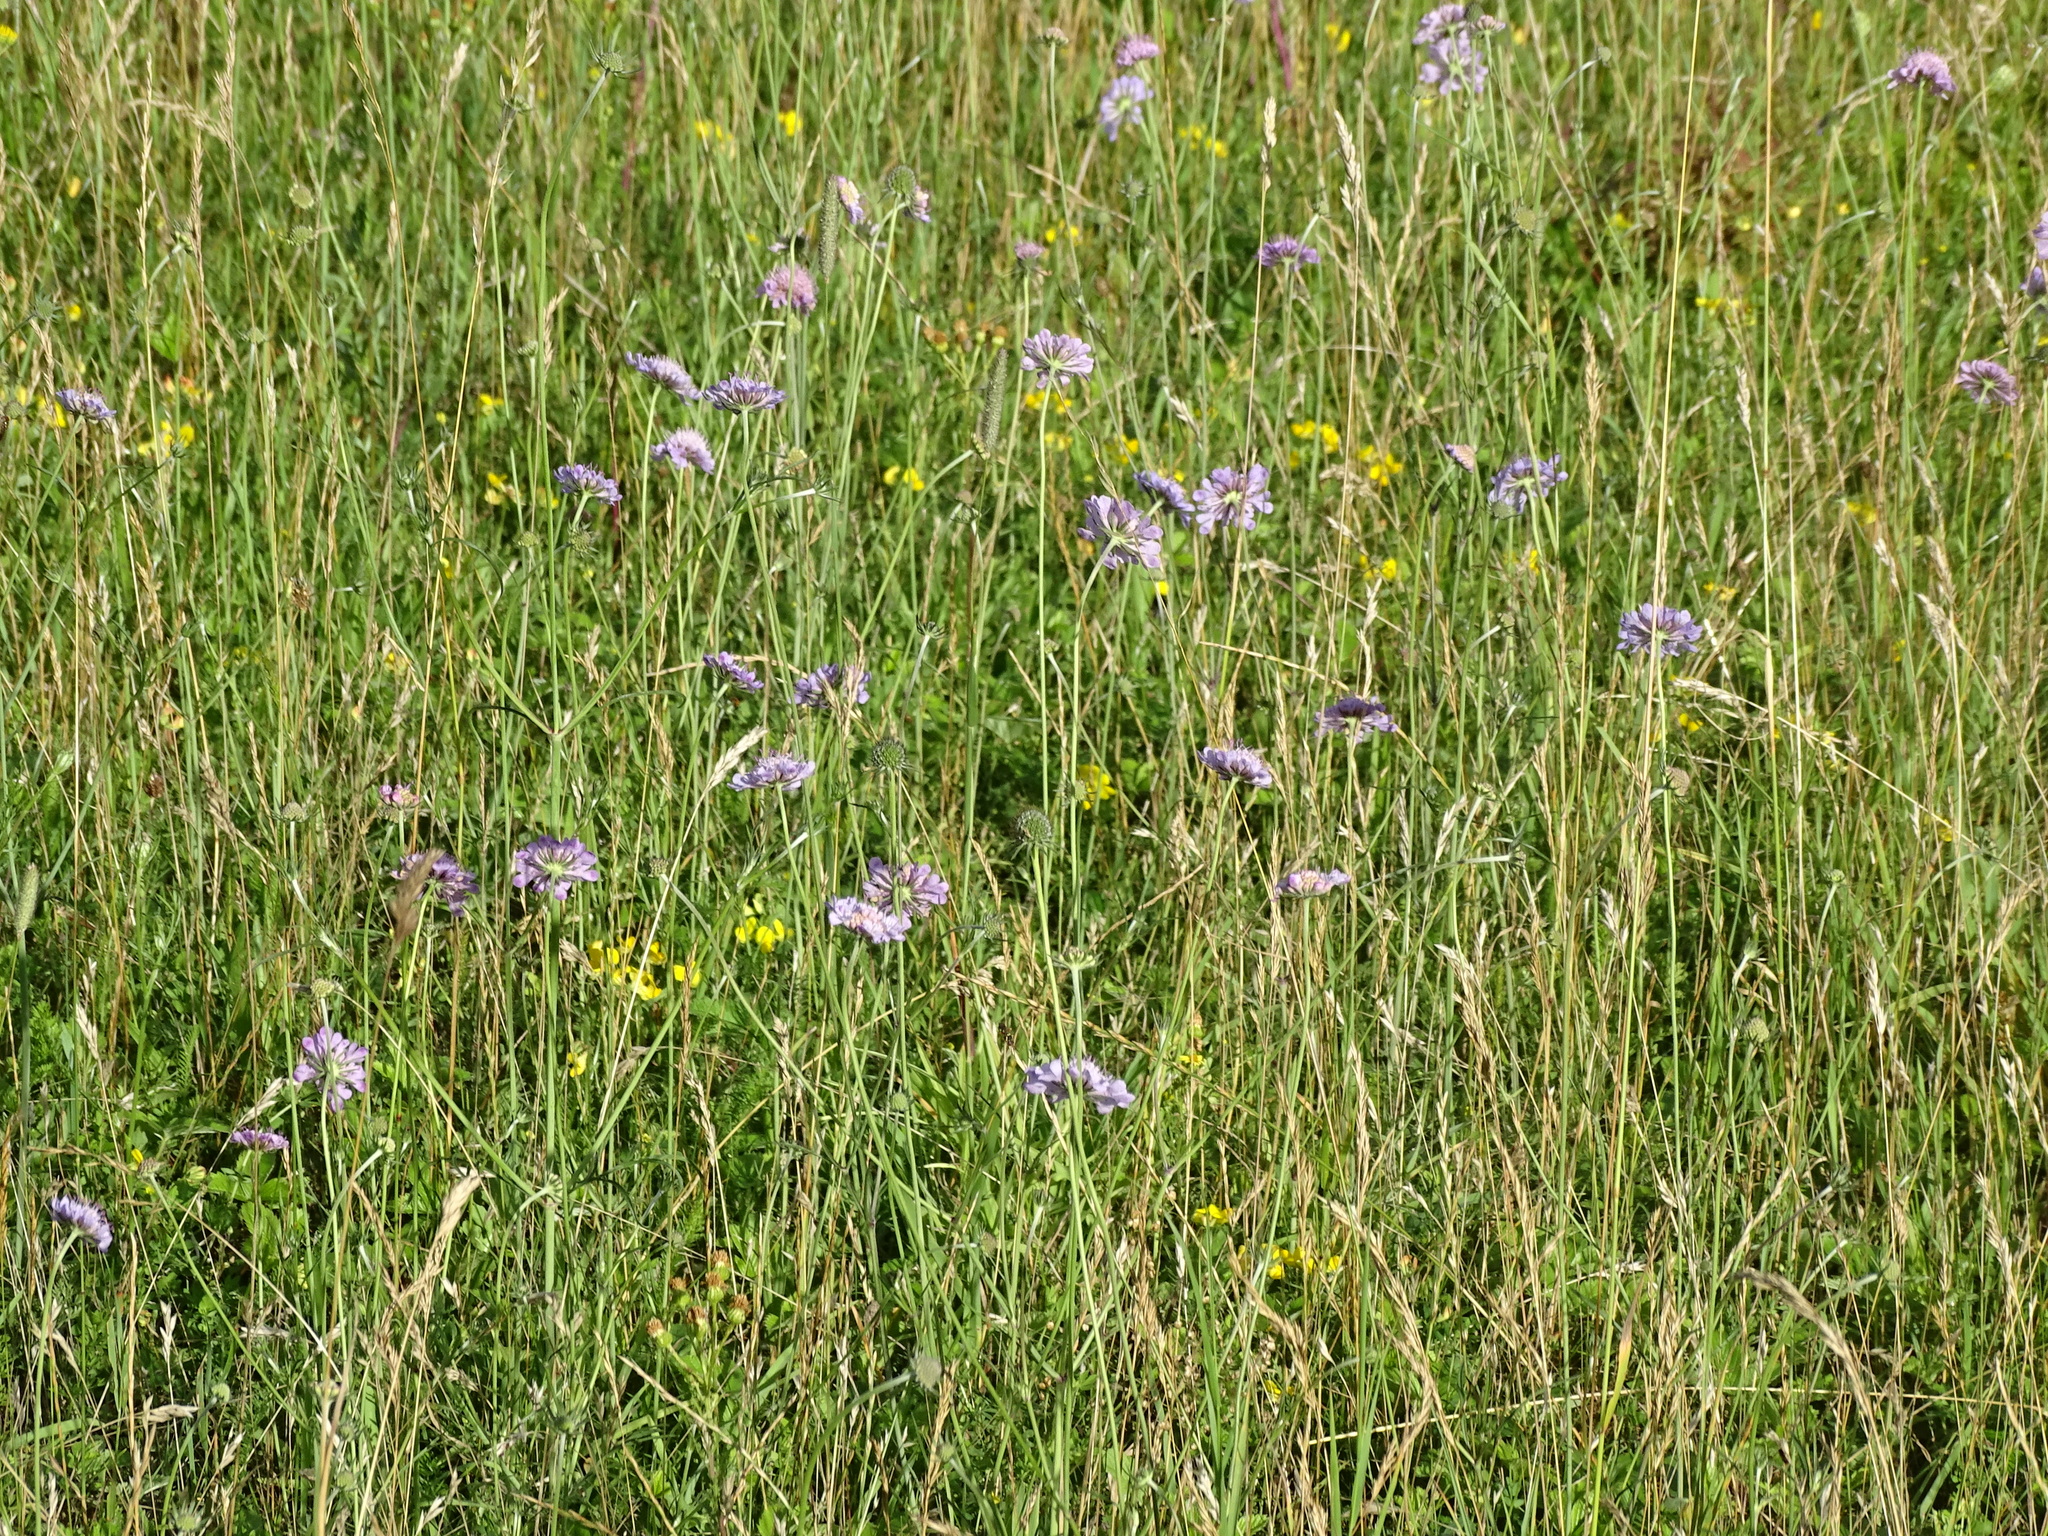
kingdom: Plantae
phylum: Tracheophyta
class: Magnoliopsida
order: Dipsacales
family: Caprifoliaceae
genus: Scabiosa
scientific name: Scabiosa columbaria
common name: Small scabious
